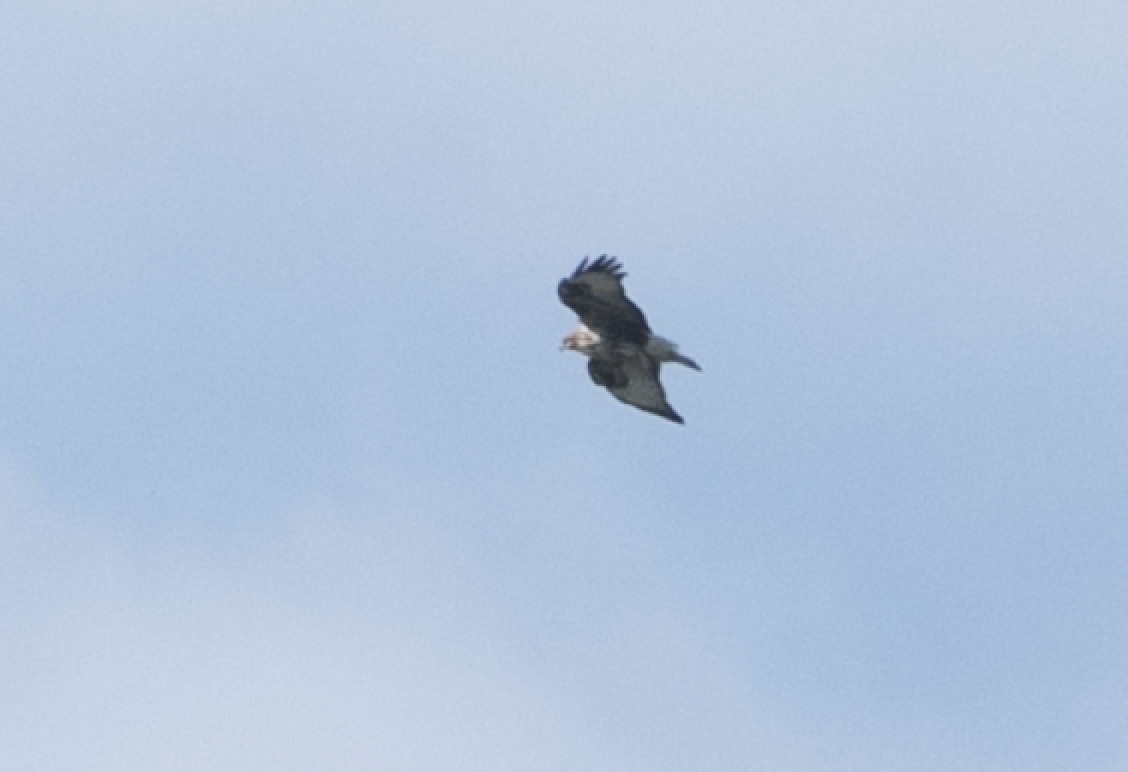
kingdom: Animalia
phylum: Chordata
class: Aves
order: Accipitriformes
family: Accipitridae
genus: Buteo
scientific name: Buteo buteo
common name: Common buzzard
